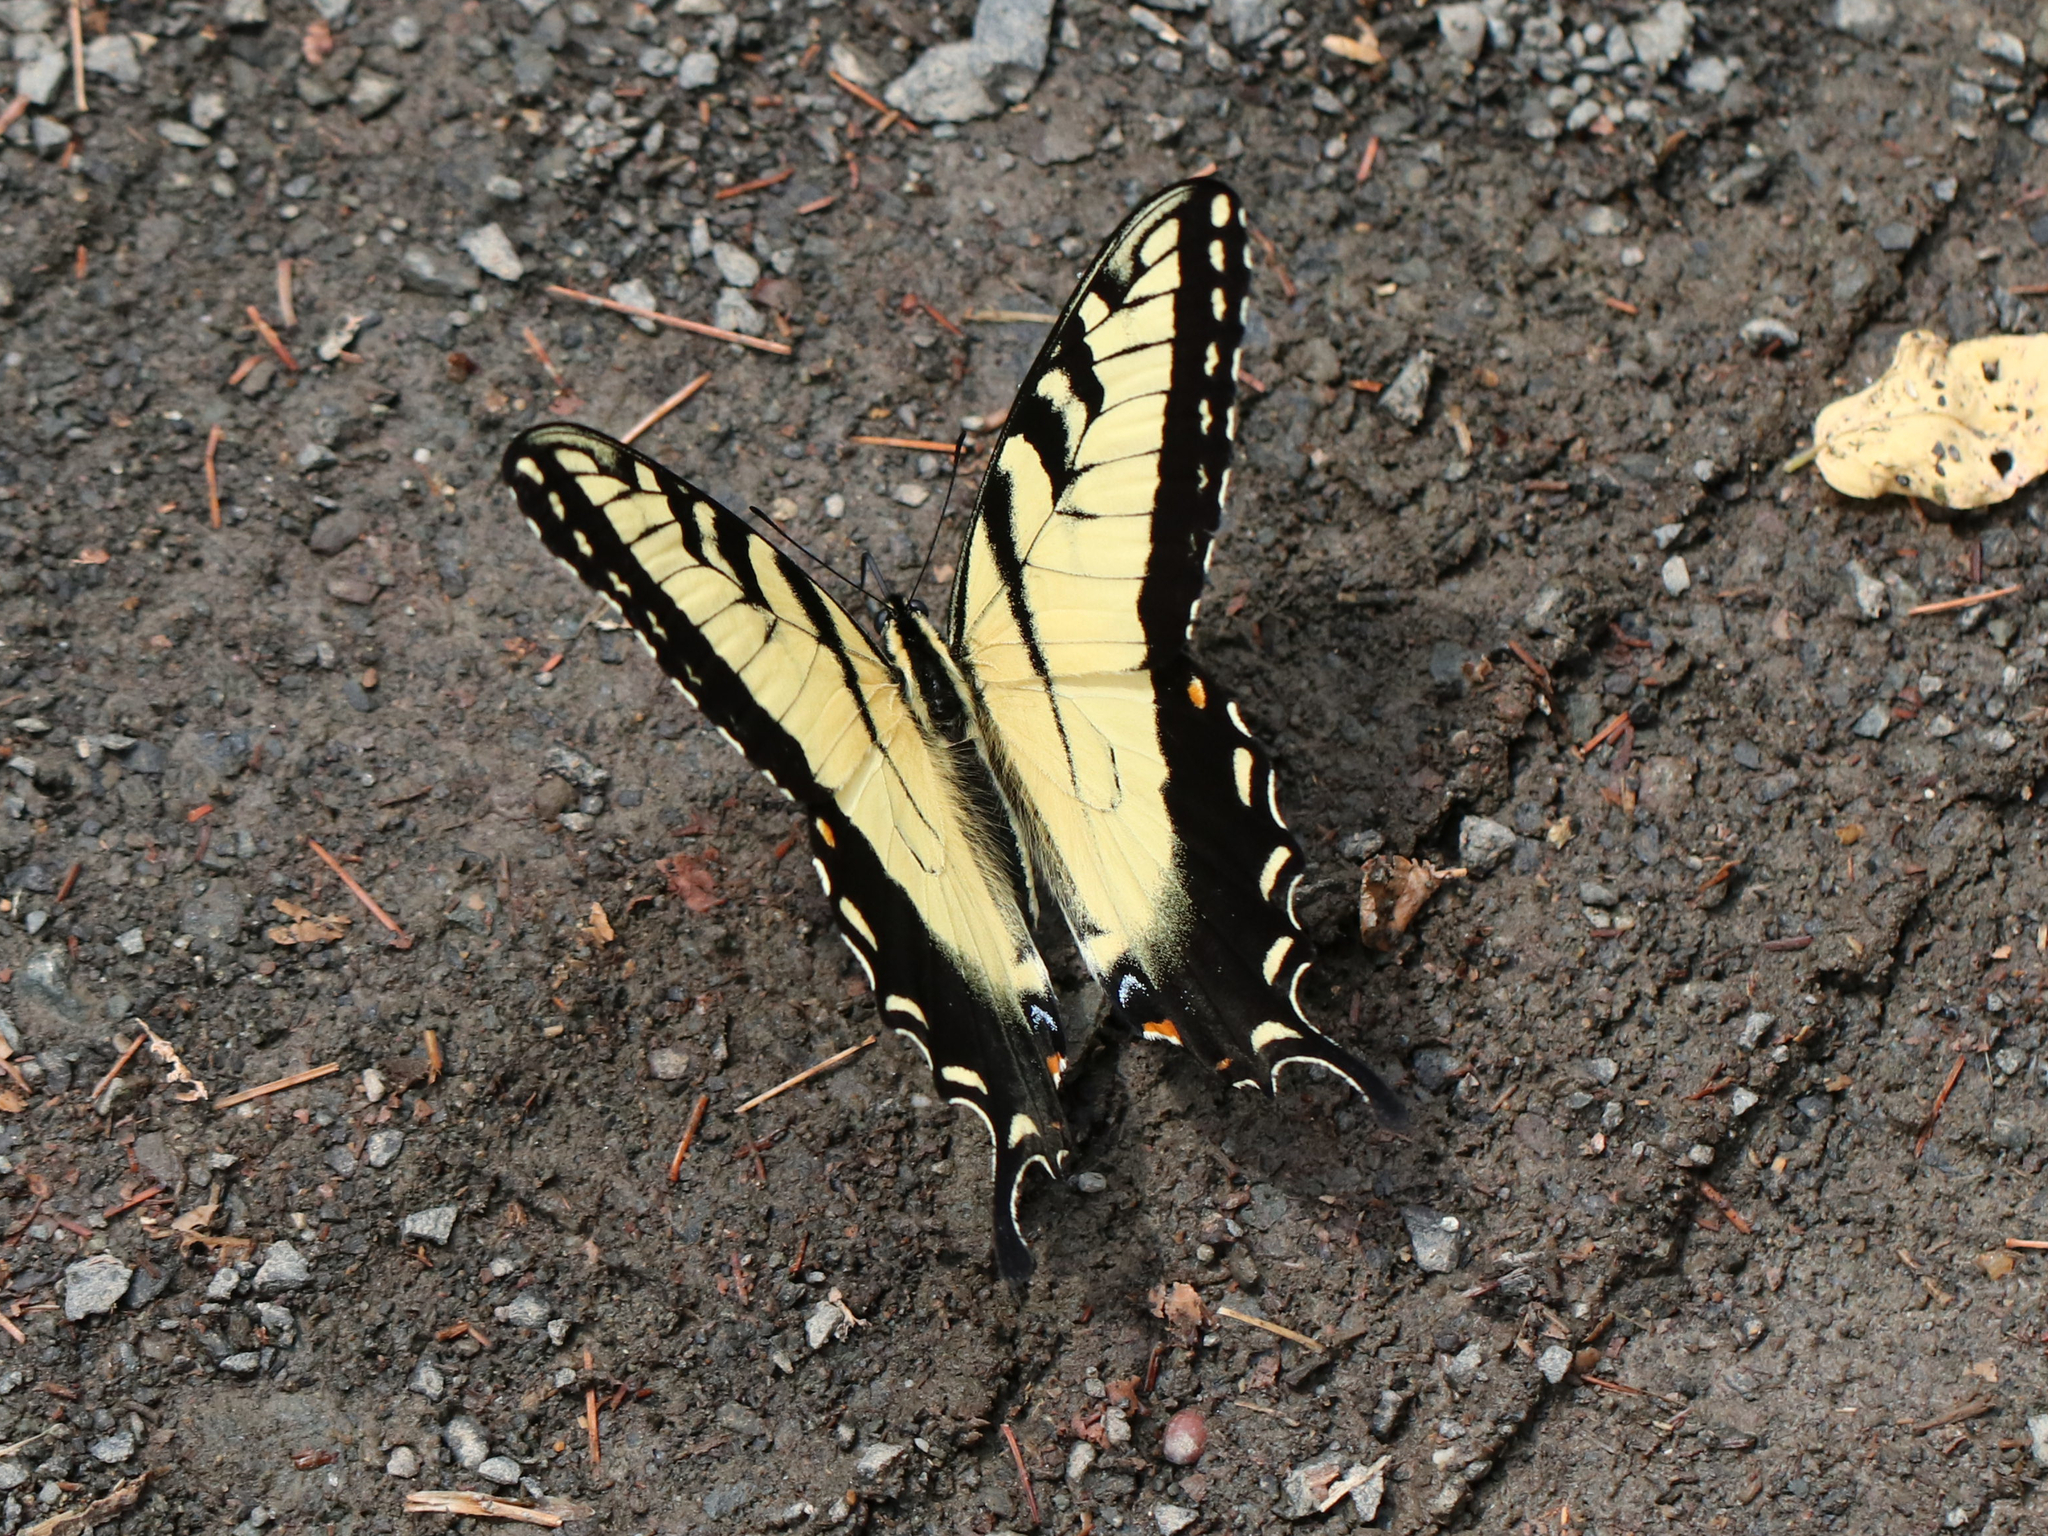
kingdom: Animalia
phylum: Arthropoda
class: Insecta
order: Lepidoptera
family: Papilionidae
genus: Papilio
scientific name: Papilio glaucus
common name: Tiger swallowtail
